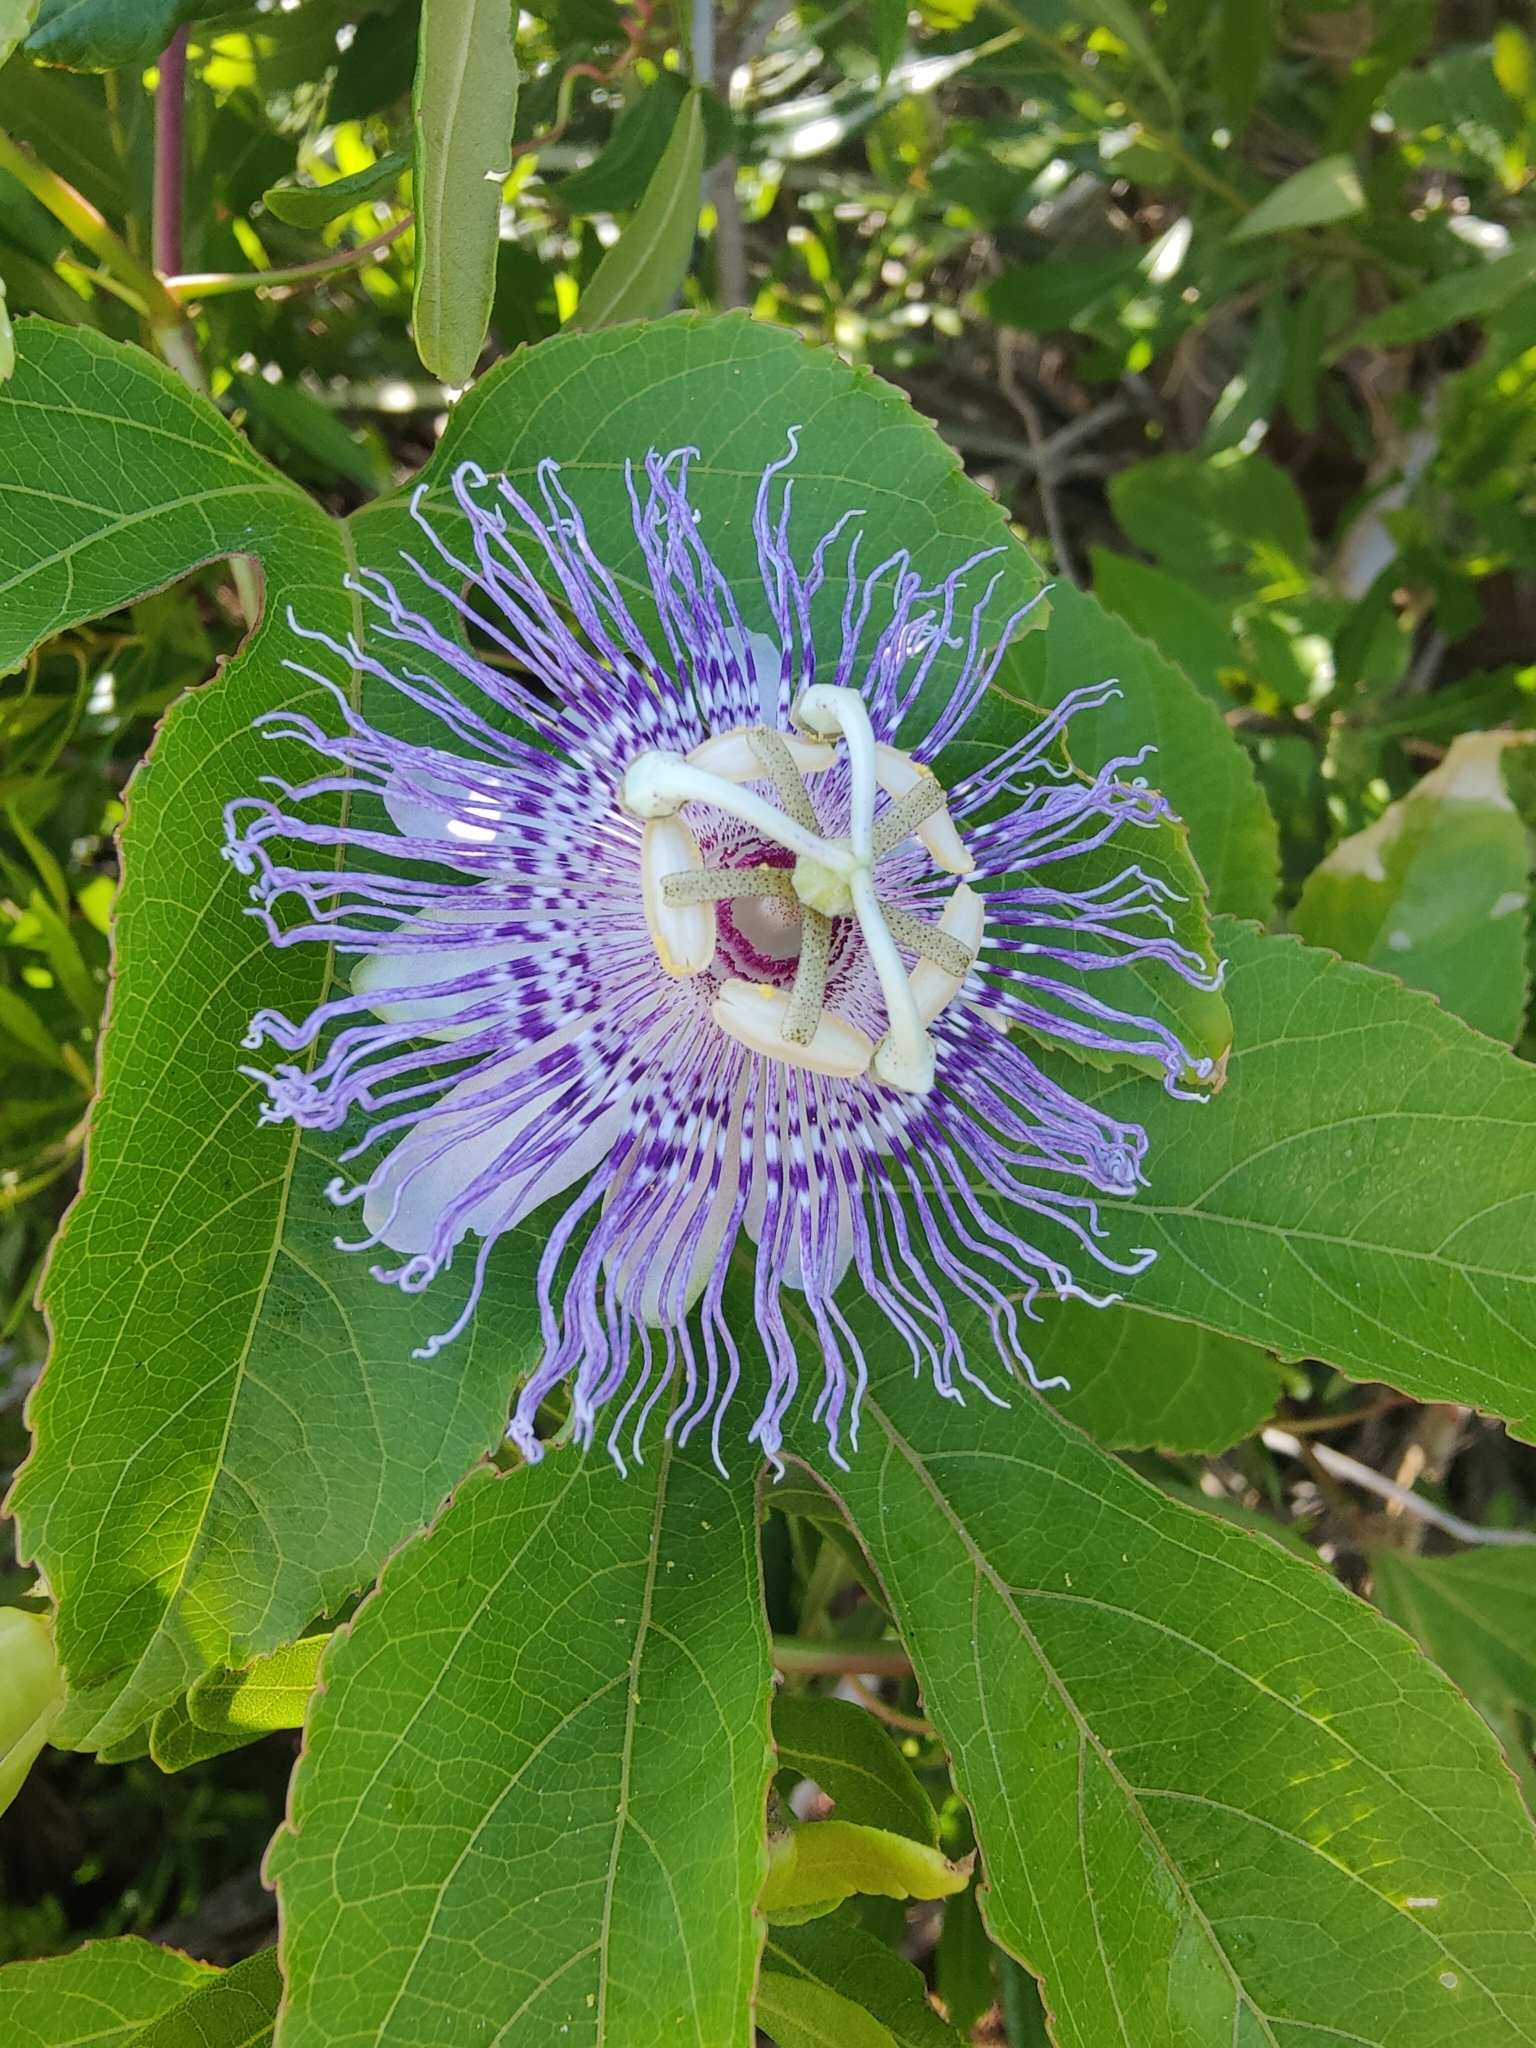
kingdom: Plantae
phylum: Tracheophyta
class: Magnoliopsida
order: Malpighiales
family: Passifloraceae
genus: Passiflora
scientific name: Passiflora incarnata
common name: Apricot-vine
